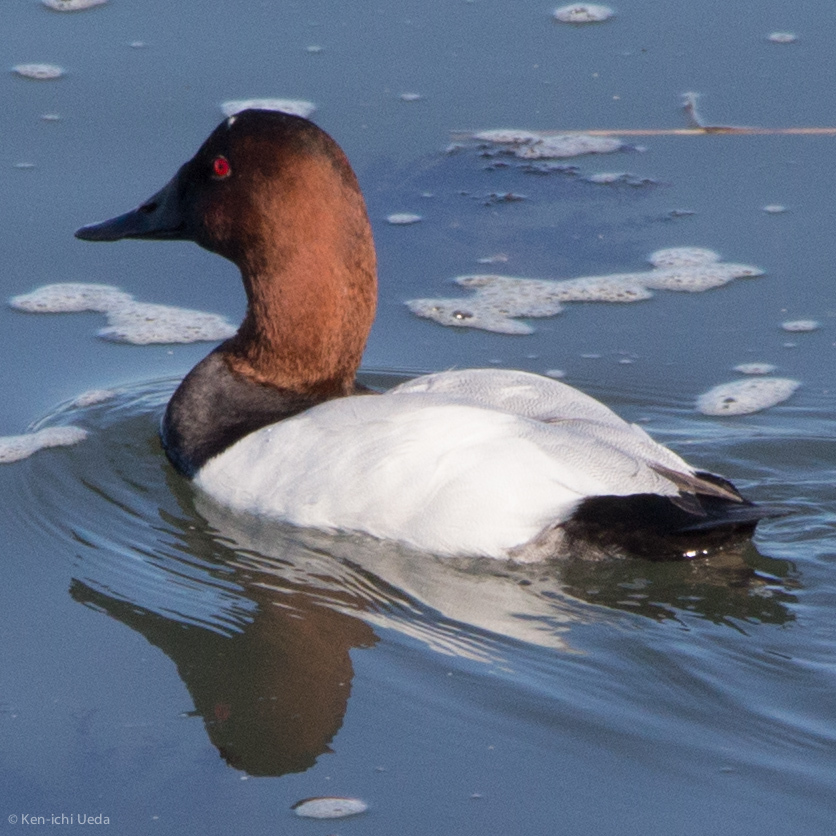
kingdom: Animalia
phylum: Chordata
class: Aves
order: Anseriformes
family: Anatidae
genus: Aythya
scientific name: Aythya valisineria
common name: Canvasback
